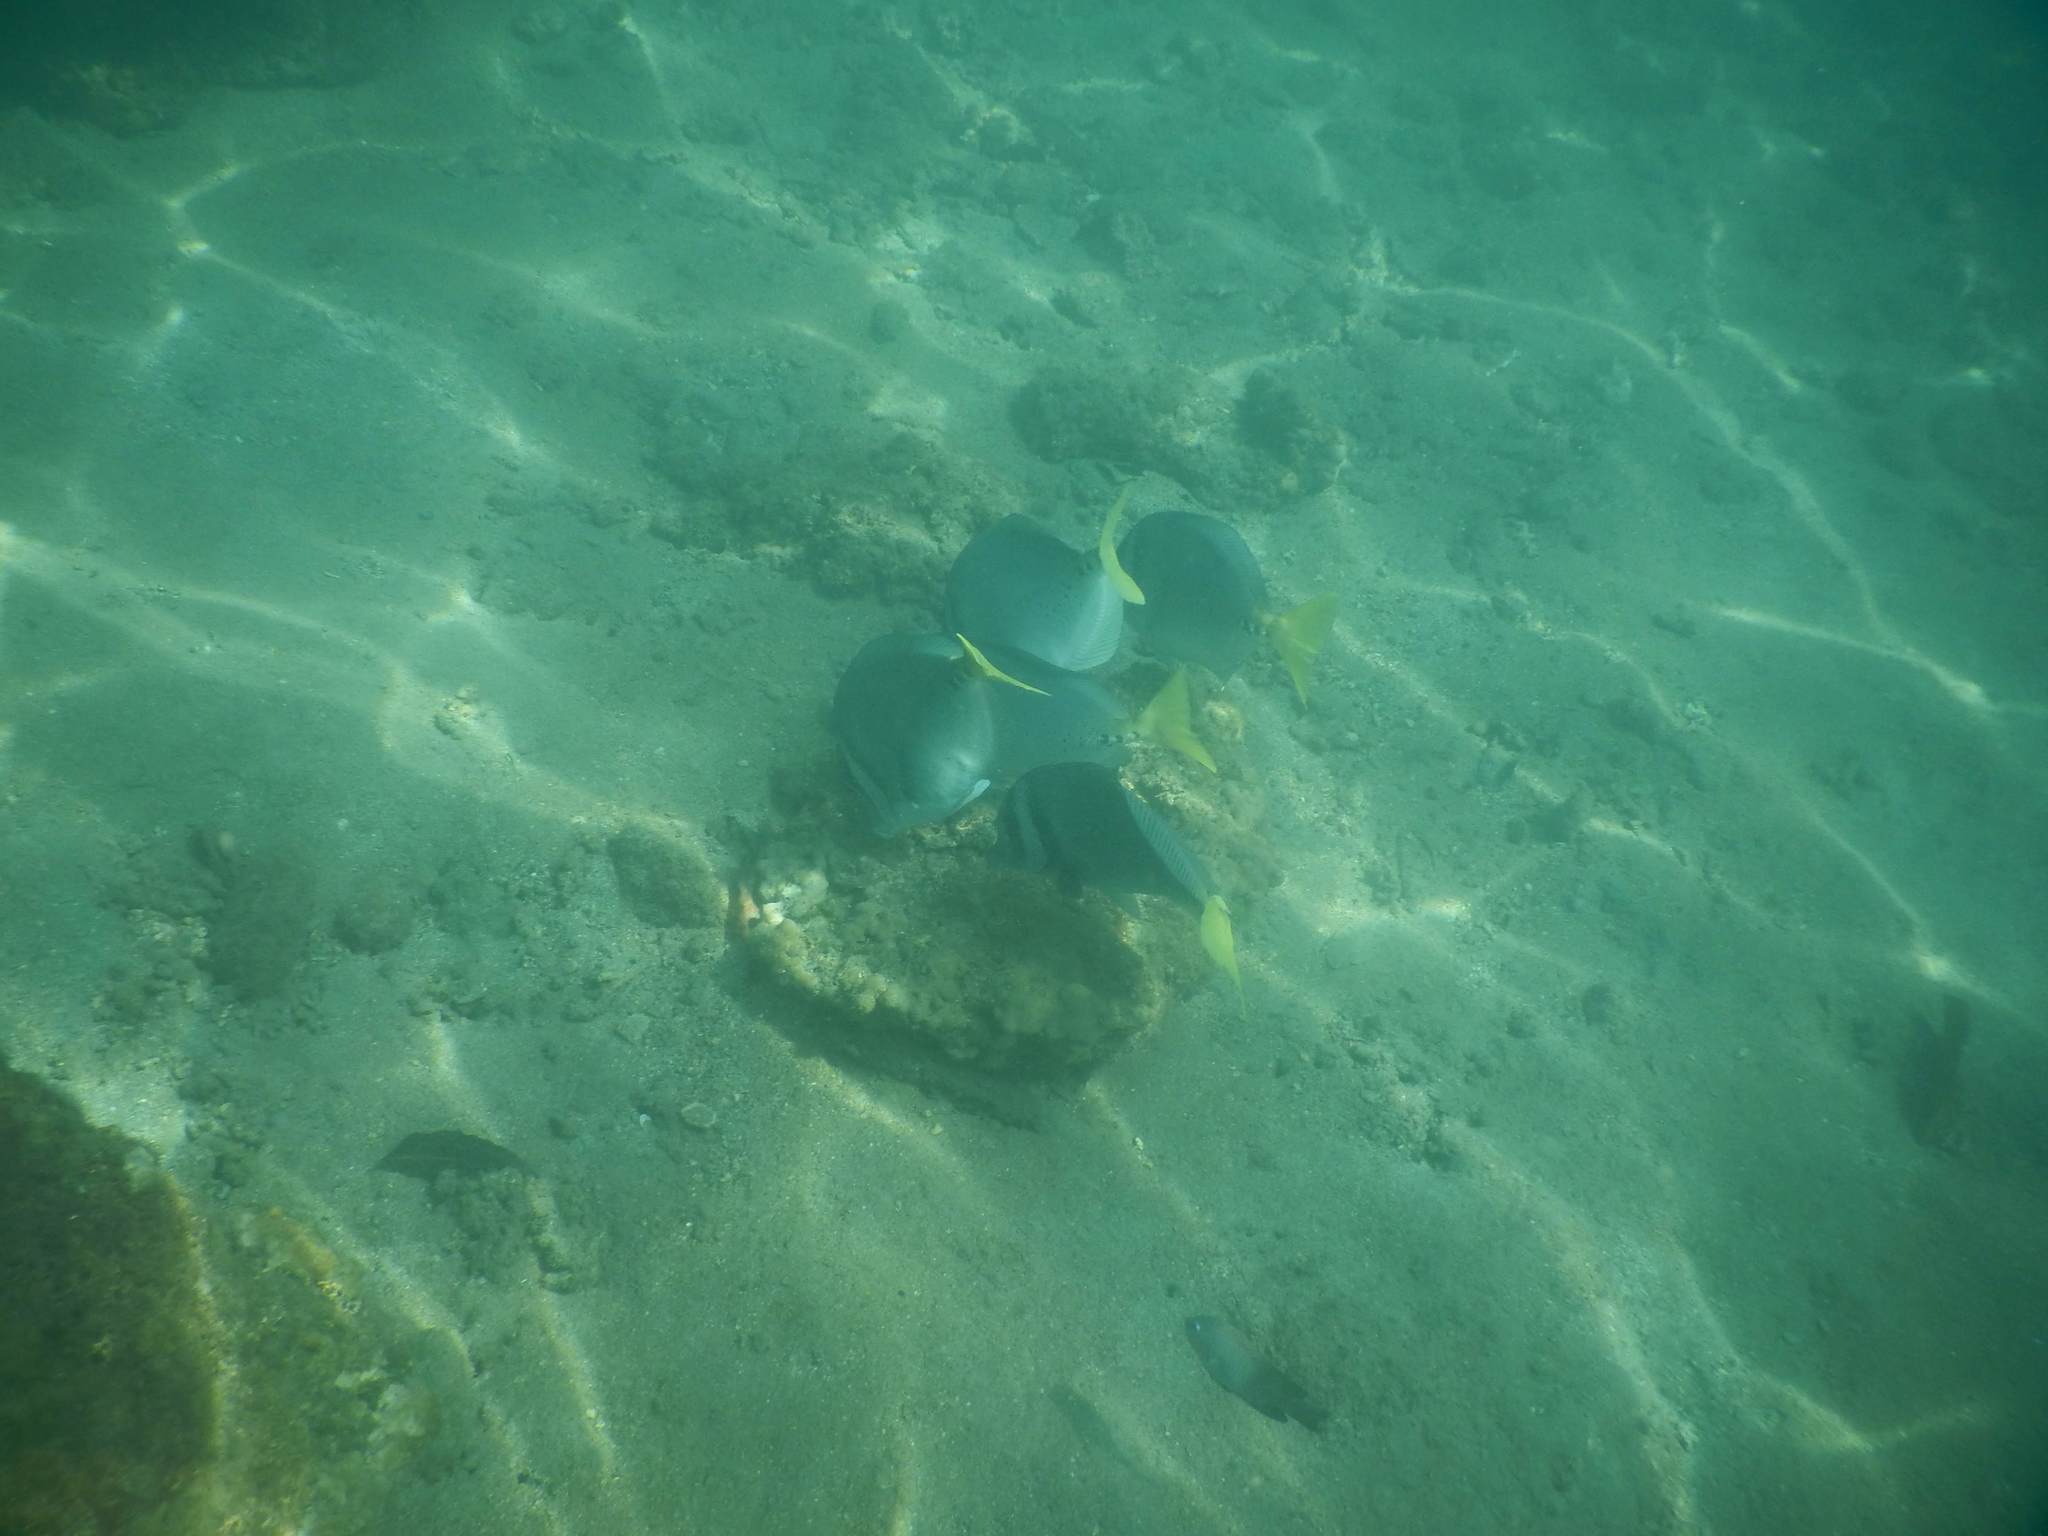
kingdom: Animalia
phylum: Chordata
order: Perciformes
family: Acanthuridae
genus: Prionurus
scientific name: Prionurus laticlavius
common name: Razor surgeonfish
